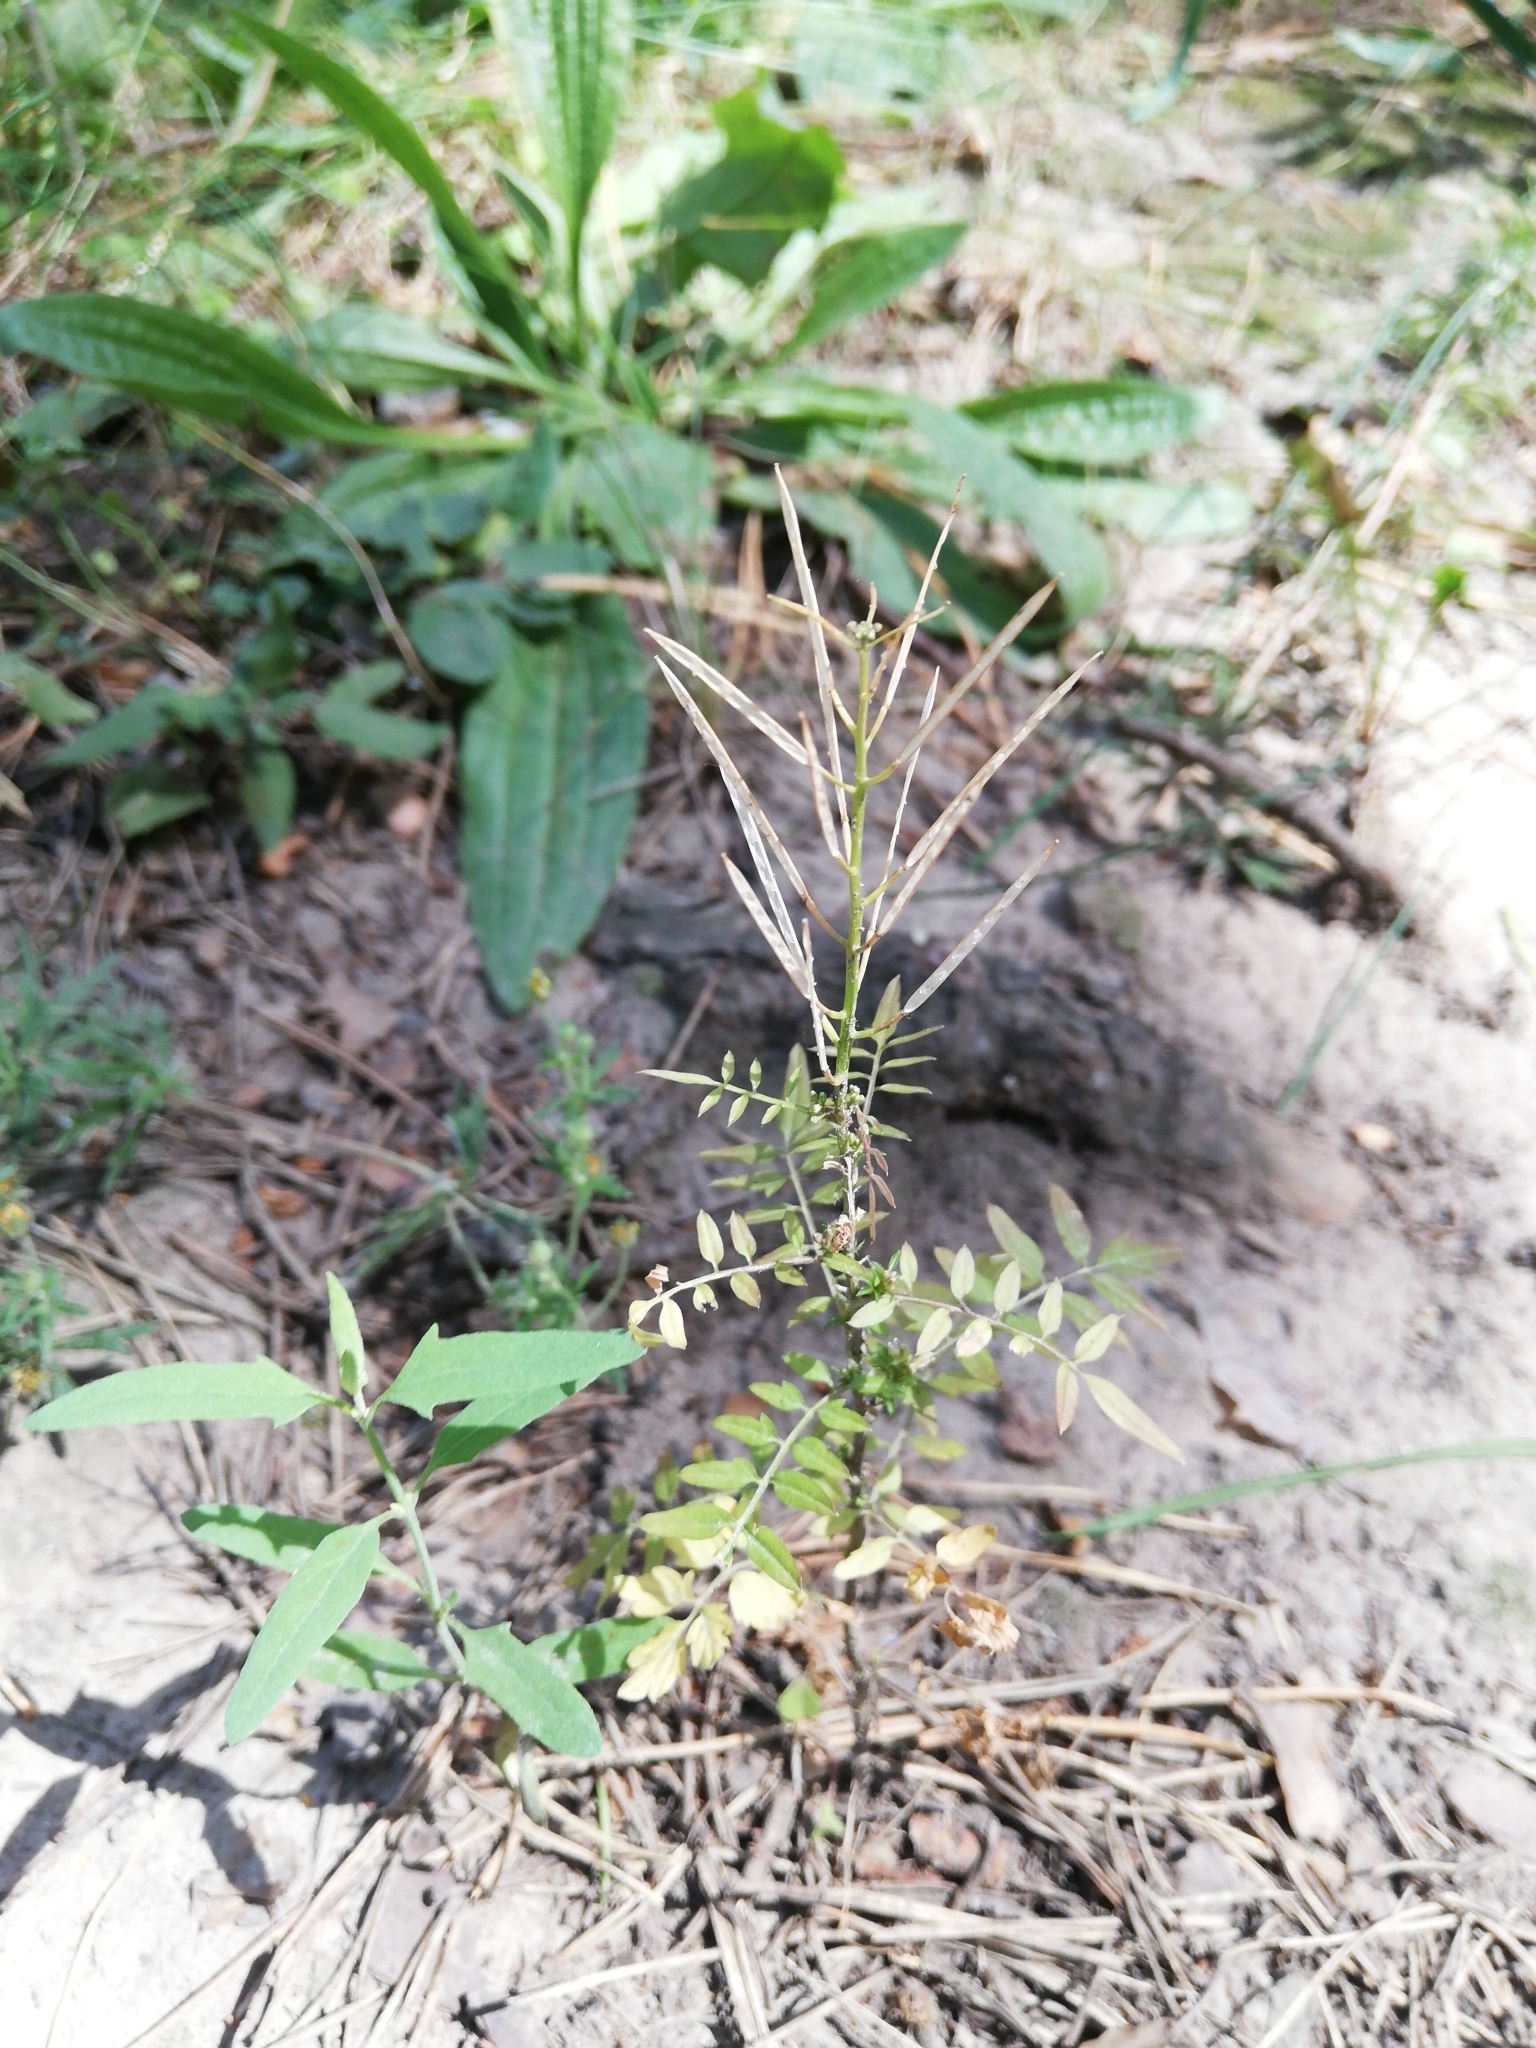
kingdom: Plantae
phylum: Tracheophyta
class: Magnoliopsida
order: Brassicales
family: Brassicaceae
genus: Cardamine
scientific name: Cardamine impatiens
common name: Narrow-leaved bitter-cress
